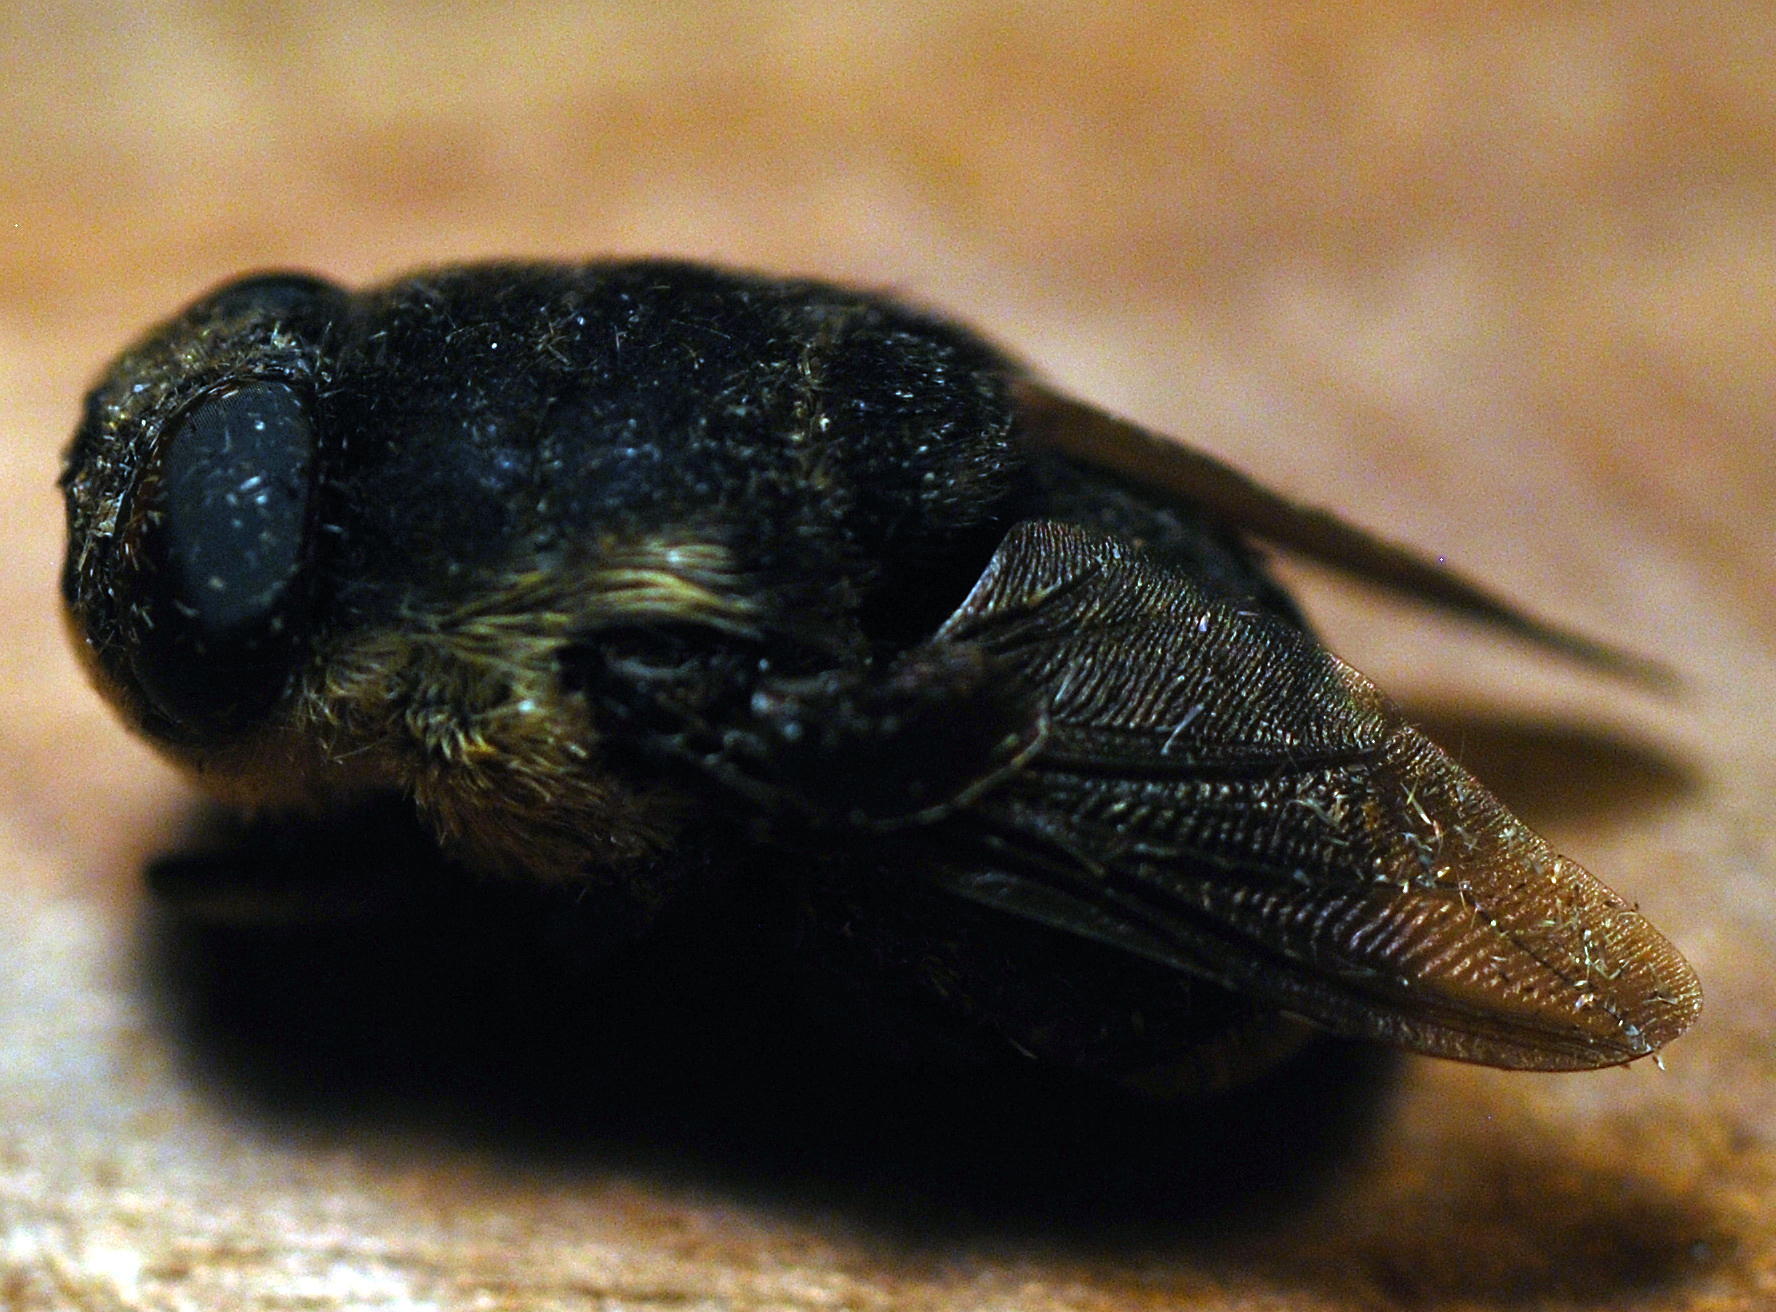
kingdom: Animalia
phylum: Arthropoda
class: Insecta
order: Diptera
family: Oestridae
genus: Cuterebra
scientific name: Cuterebra fontinella
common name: Mouse bot fly
